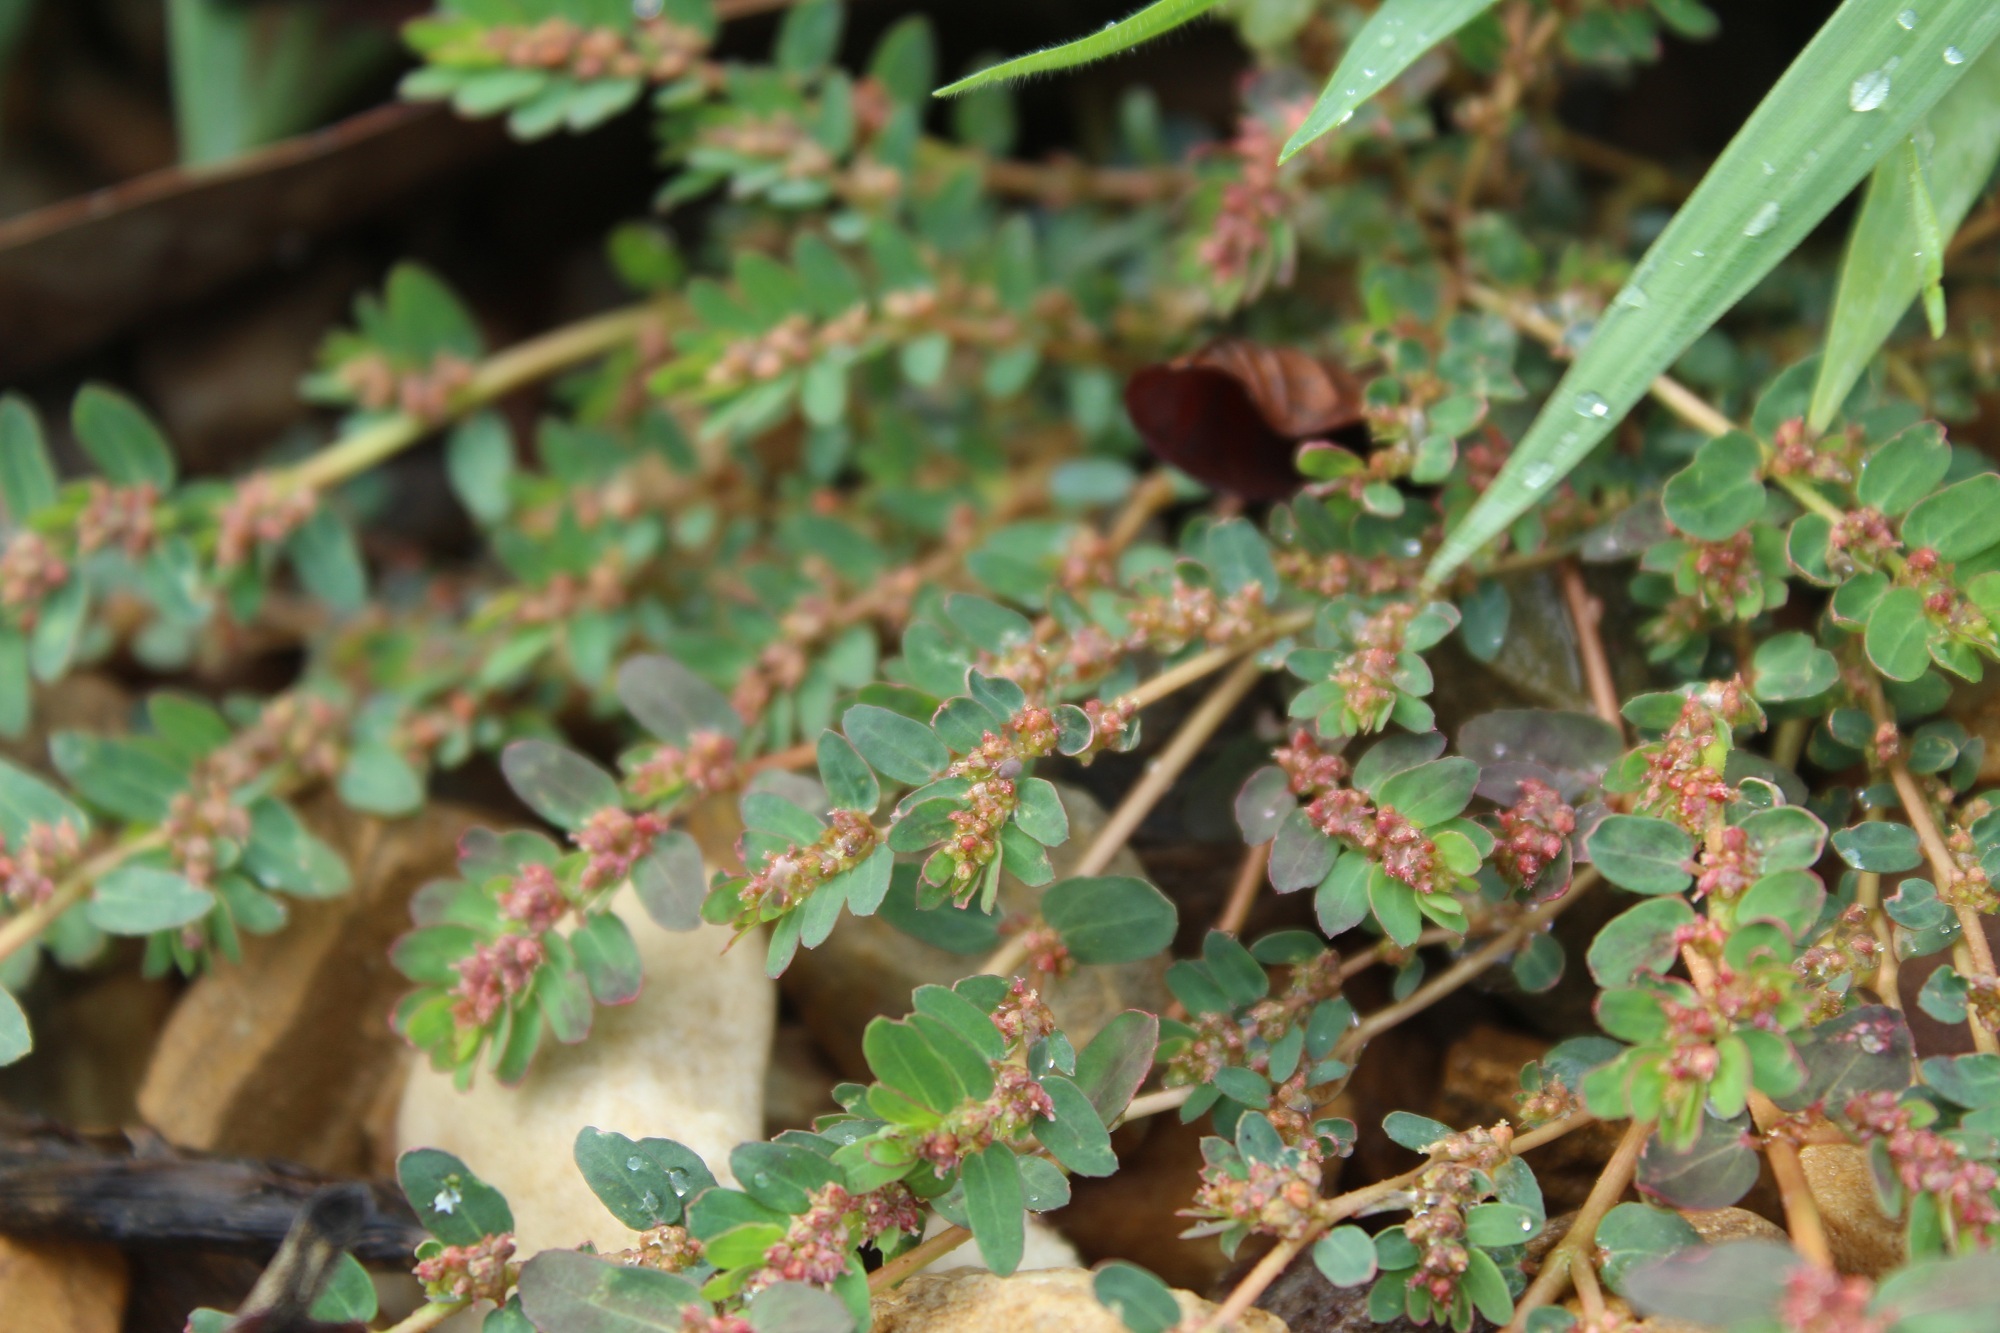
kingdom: Plantae
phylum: Tracheophyta
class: Magnoliopsida
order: Malpighiales
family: Euphorbiaceae
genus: Euphorbia
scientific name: Euphorbia thymifolia
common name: Gulf sandmat
